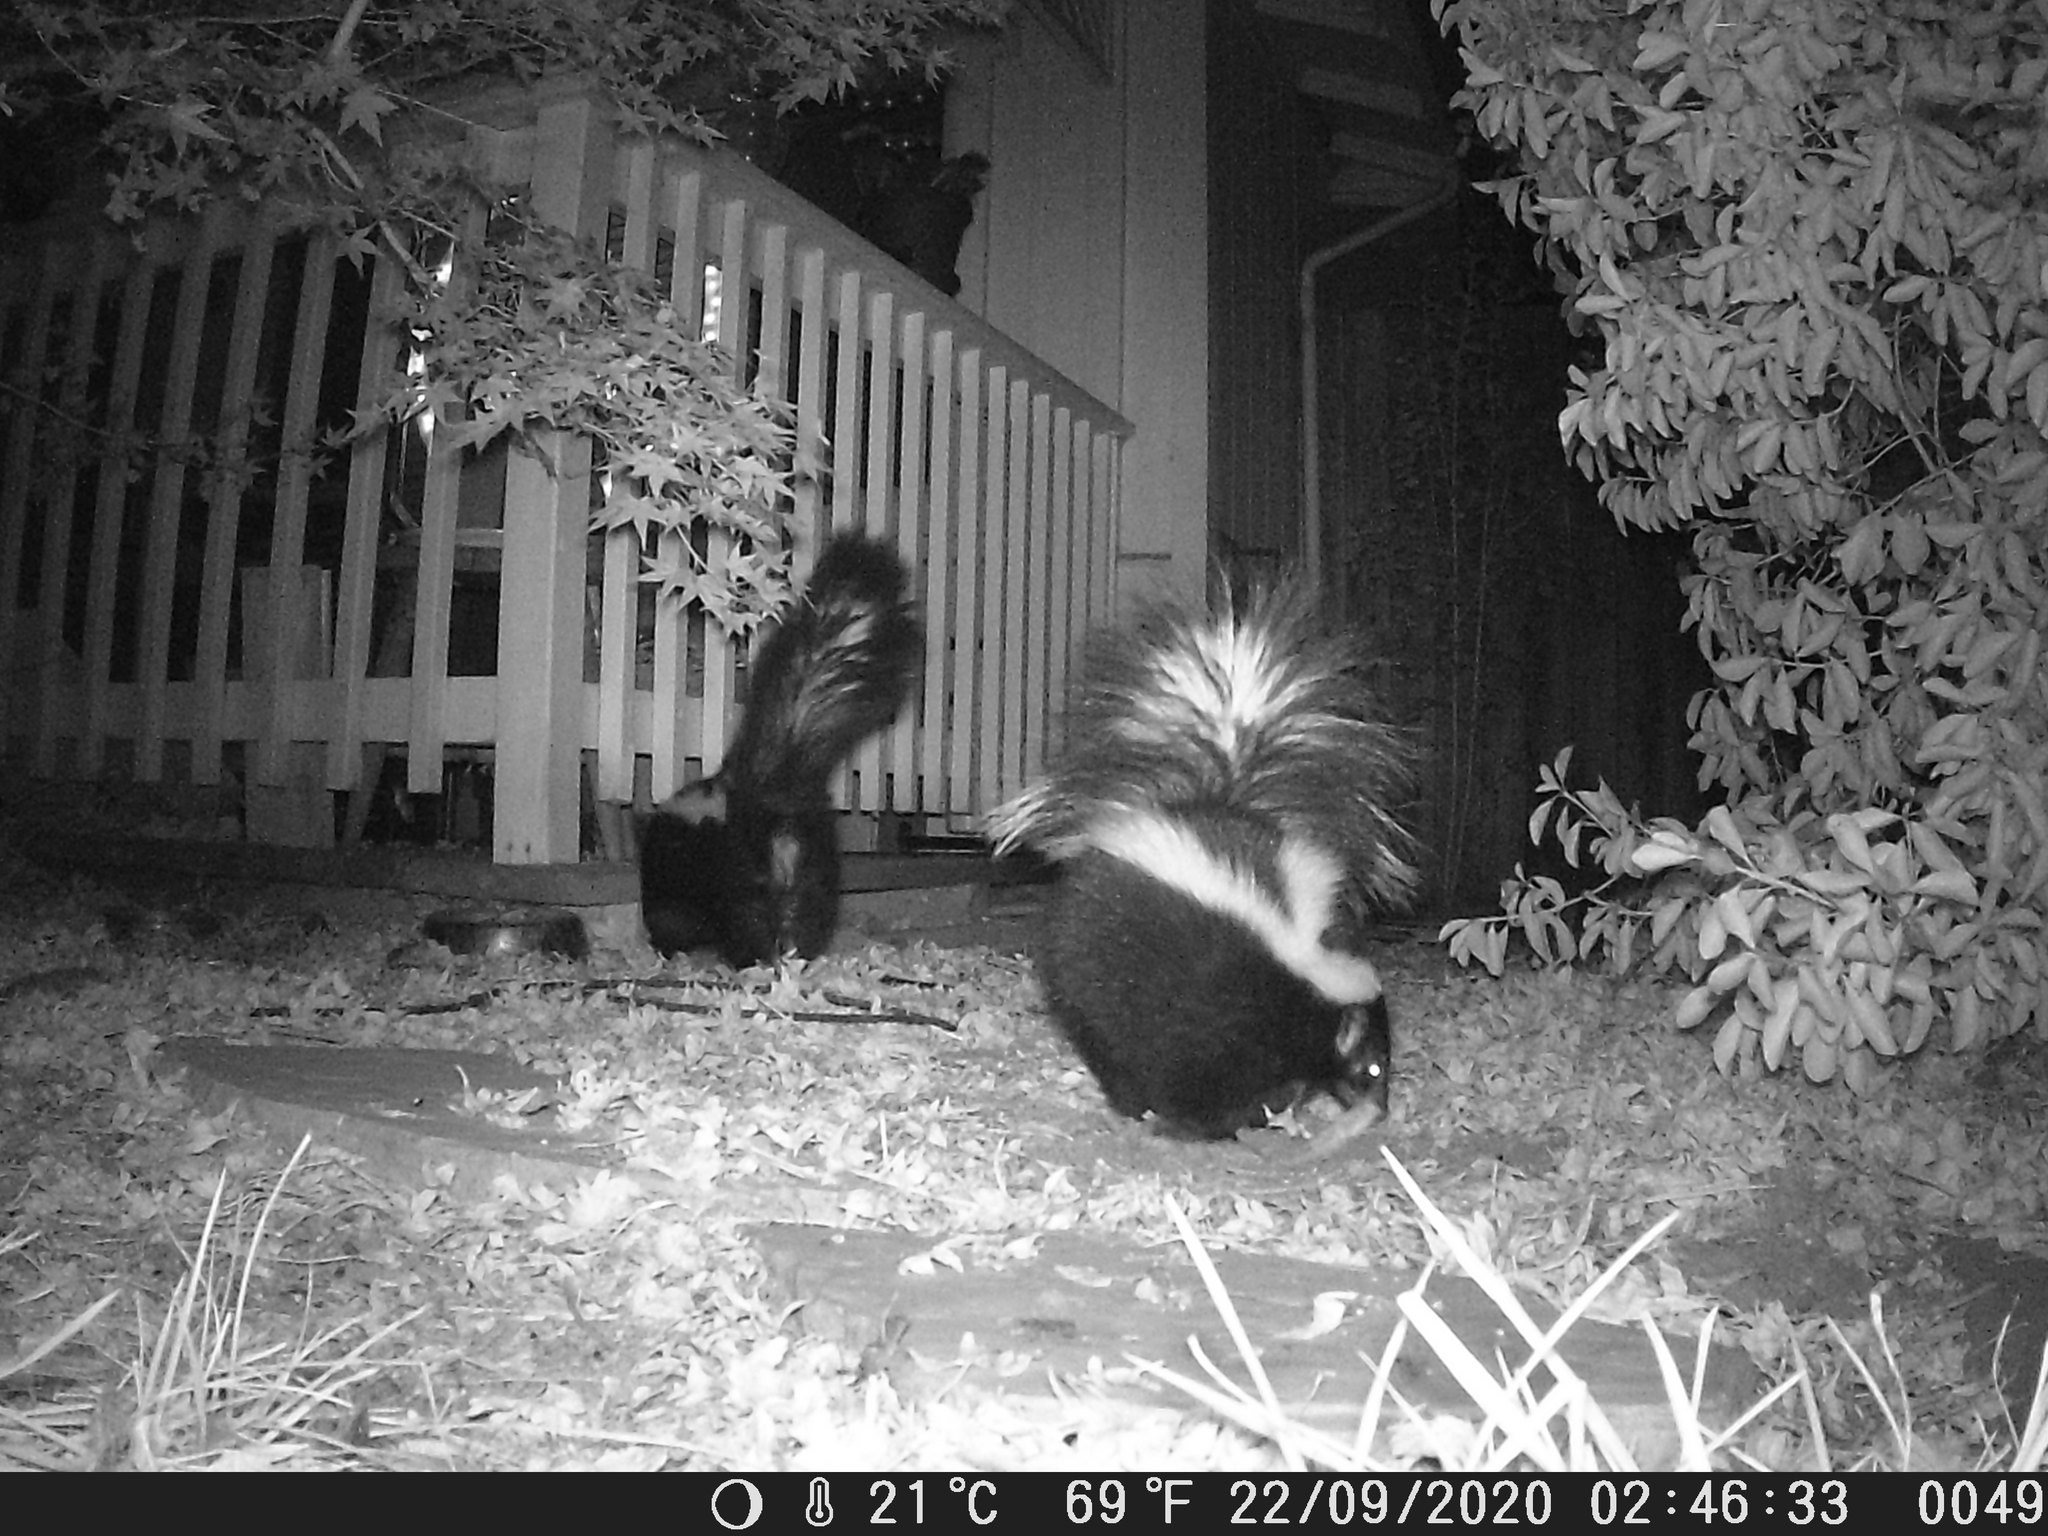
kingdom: Animalia
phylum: Chordata
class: Mammalia
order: Carnivora
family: Mephitidae
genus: Mephitis
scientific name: Mephitis mephitis
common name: Striped skunk
